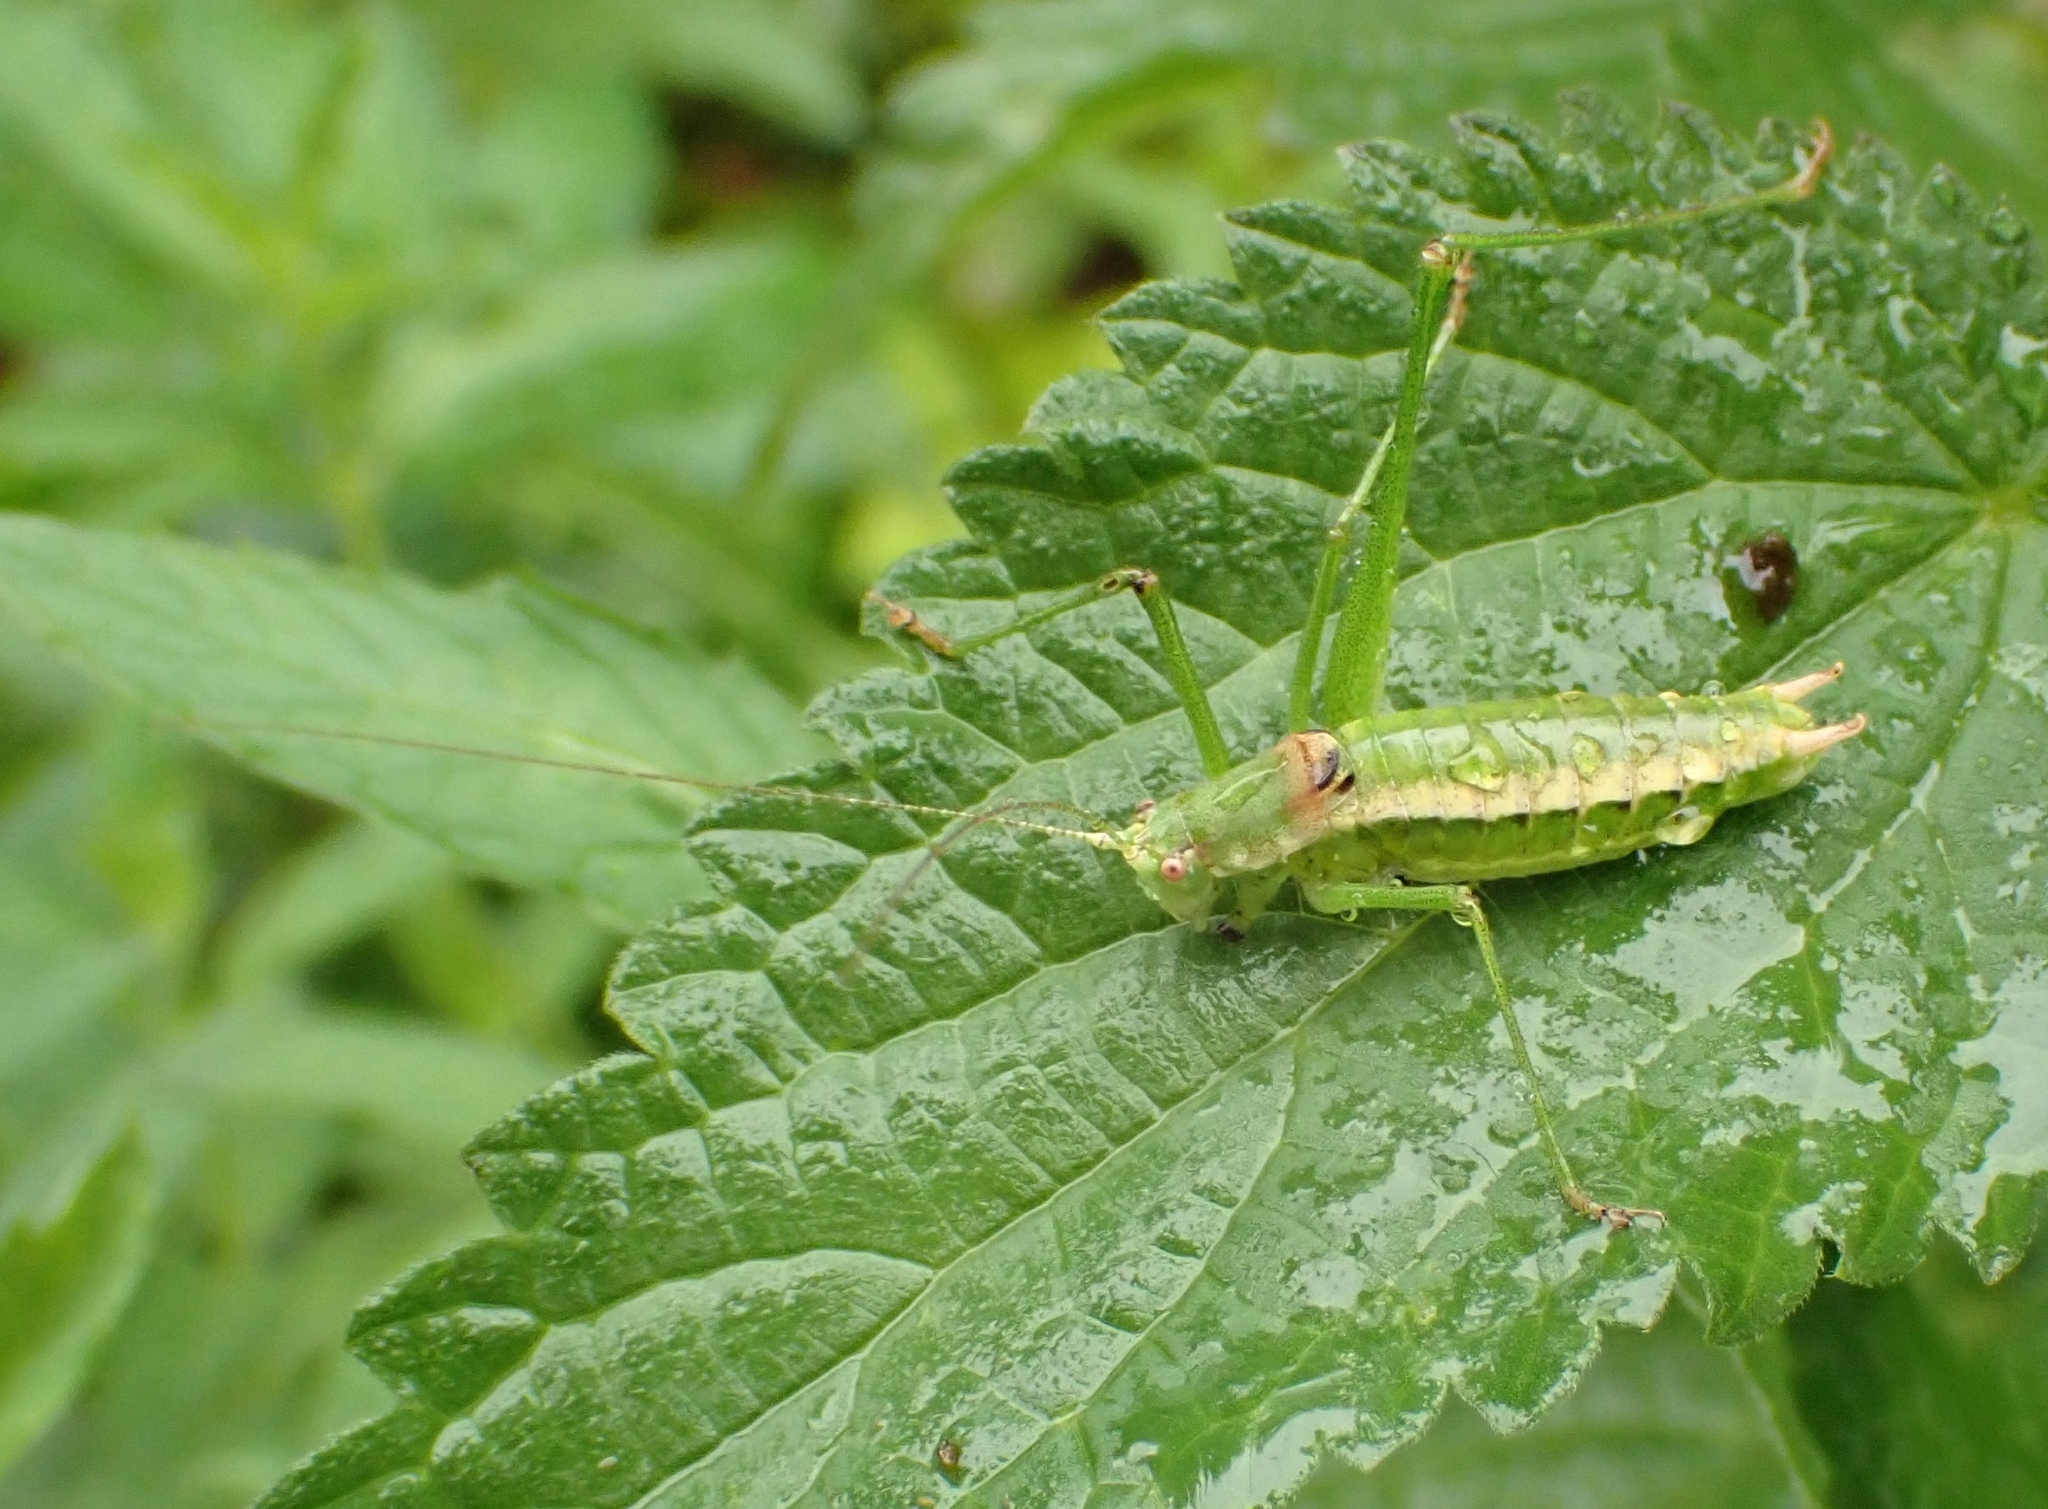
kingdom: Animalia
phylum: Arthropoda
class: Insecta
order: Orthoptera
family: Tettigoniidae
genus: Leptophyes
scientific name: Leptophyes boscii
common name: Balkan speckled bush-cricket
